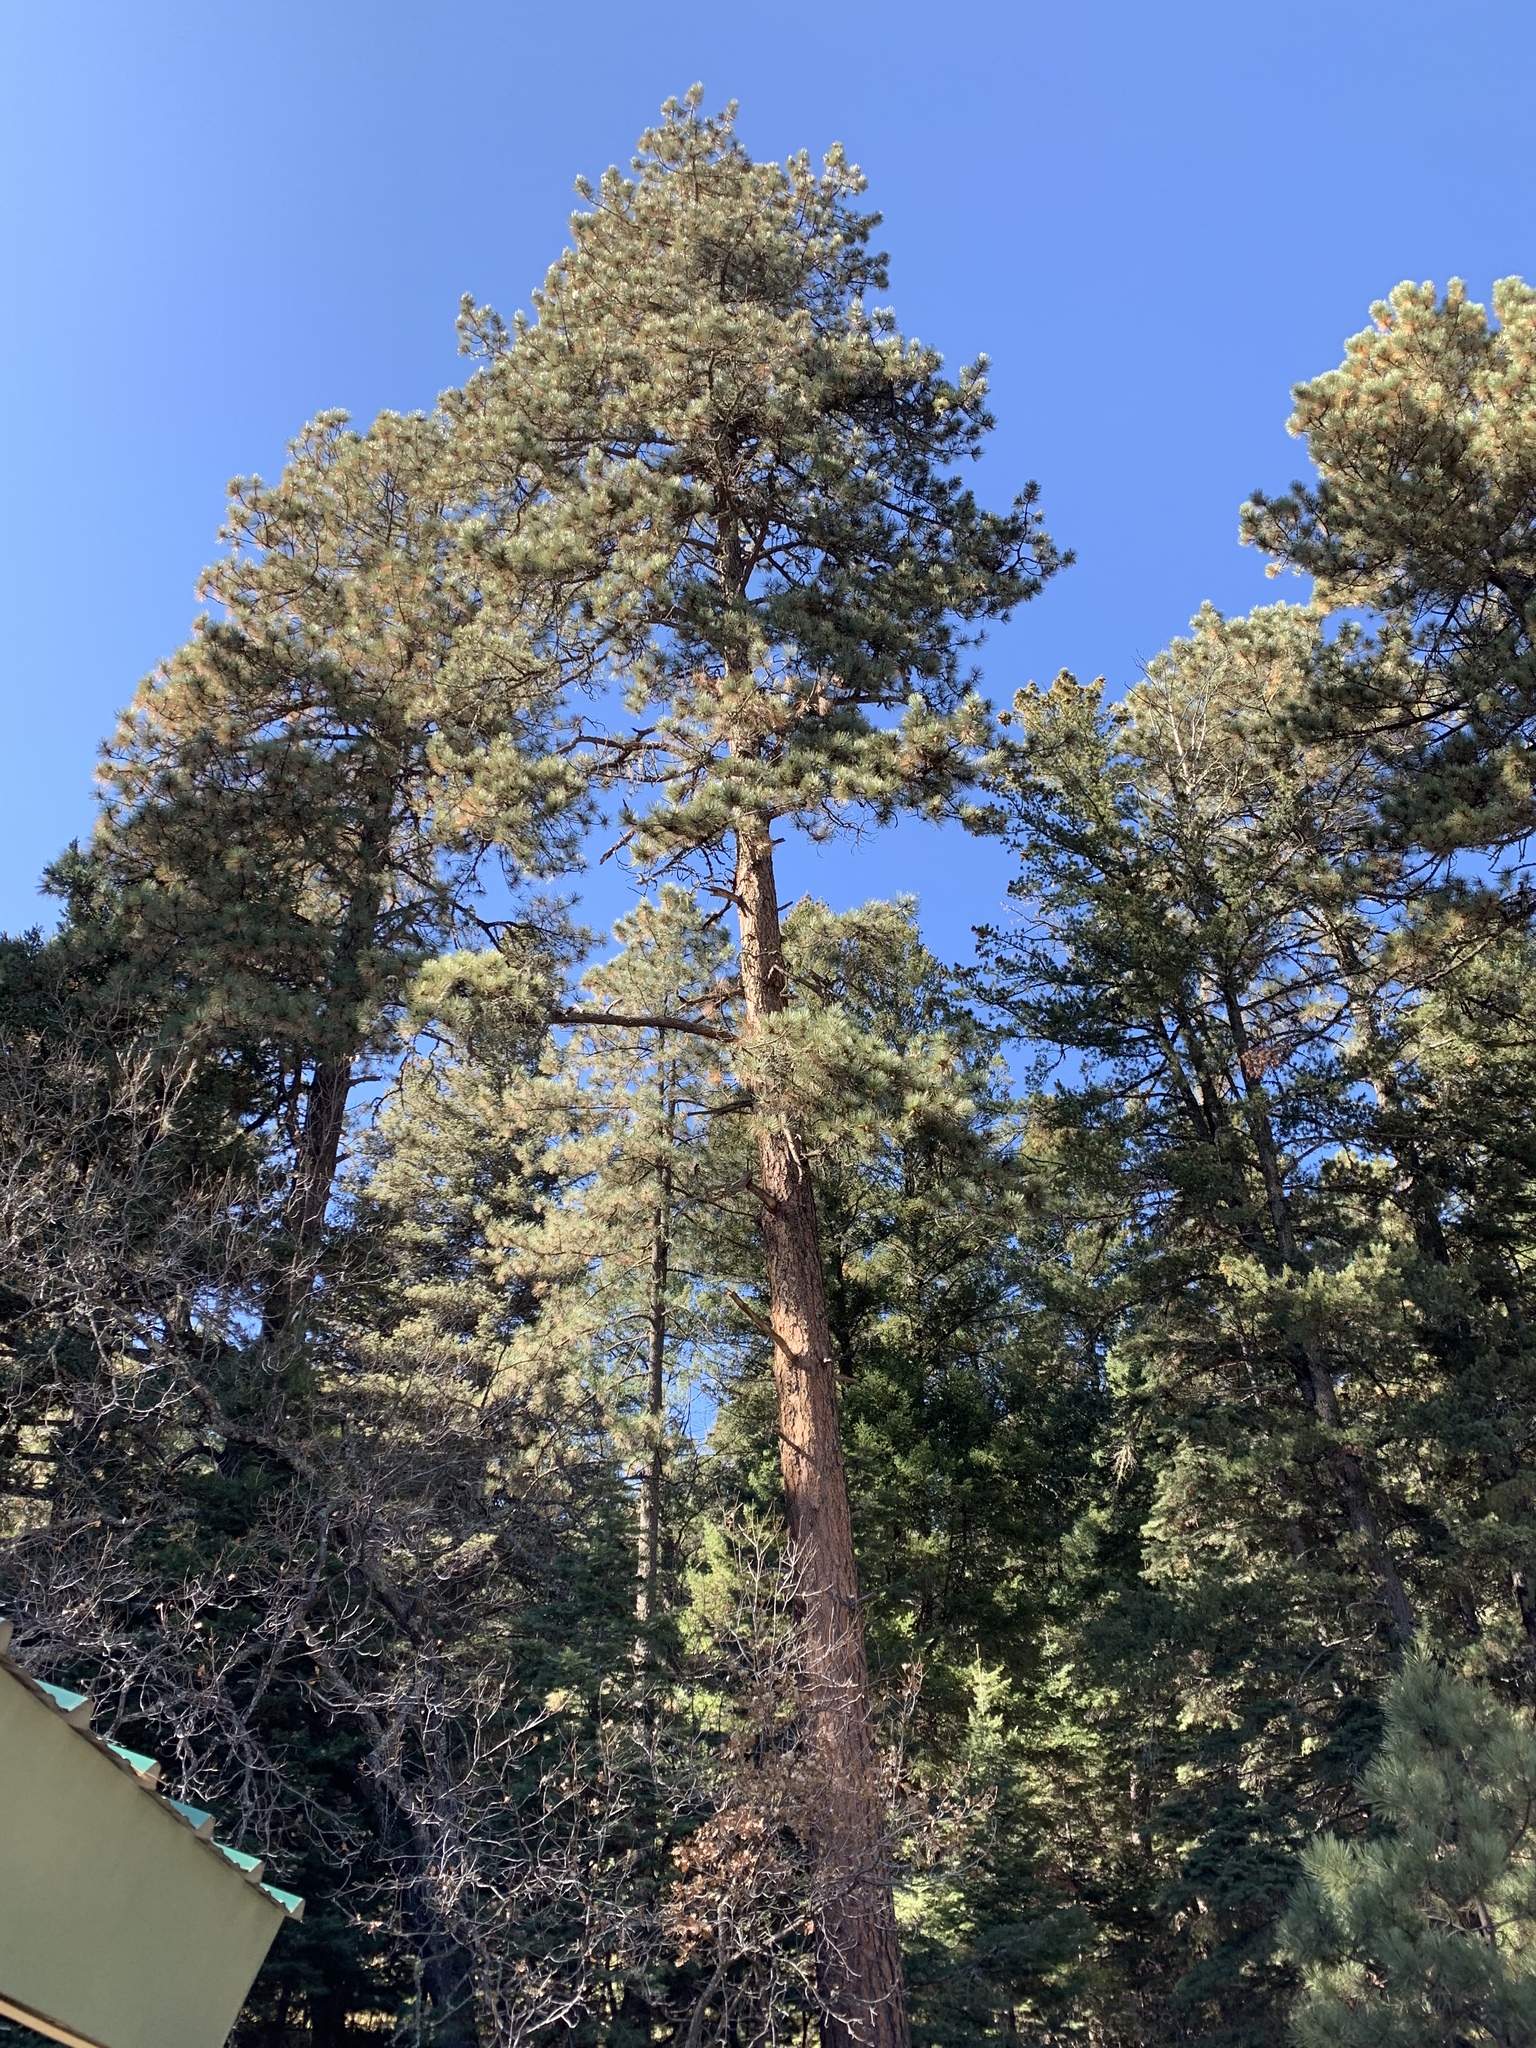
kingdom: Plantae
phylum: Tracheophyta
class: Pinopsida
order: Pinales
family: Pinaceae
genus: Pinus
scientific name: Pinus ponderosa
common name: Western yellow-pine
